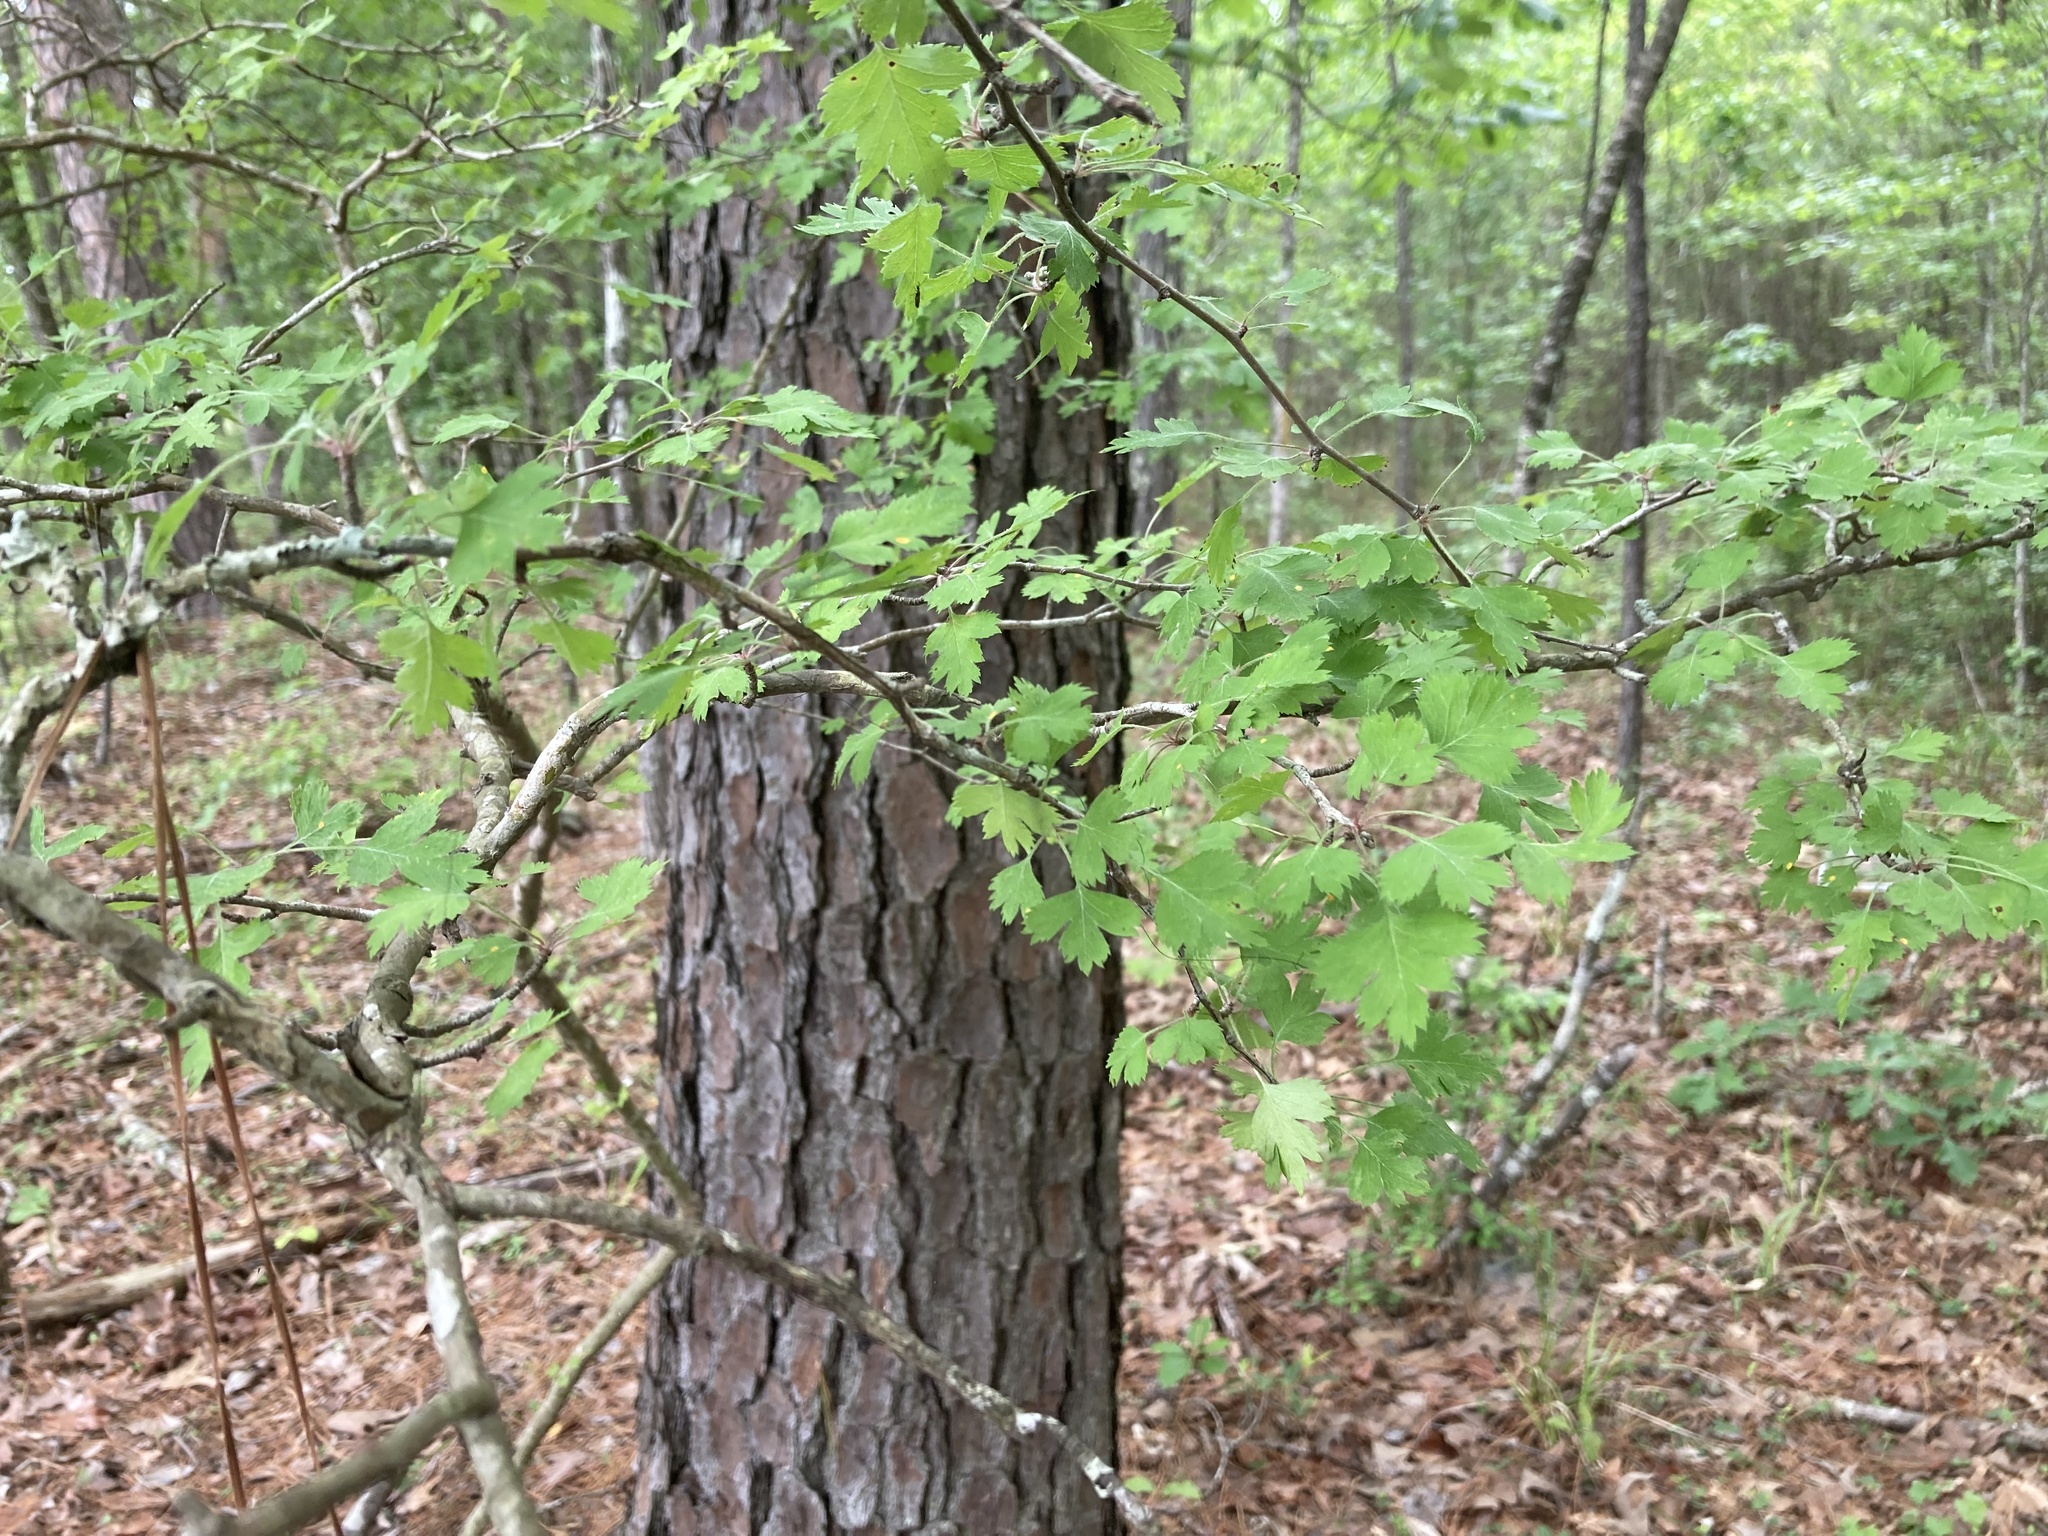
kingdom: Plantae
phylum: Tracheophyta
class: Magnoliopsida
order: Rosales
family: Rosaceae
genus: Crataegus
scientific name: Crataegus marshallii
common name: Parsley-hawthorn
